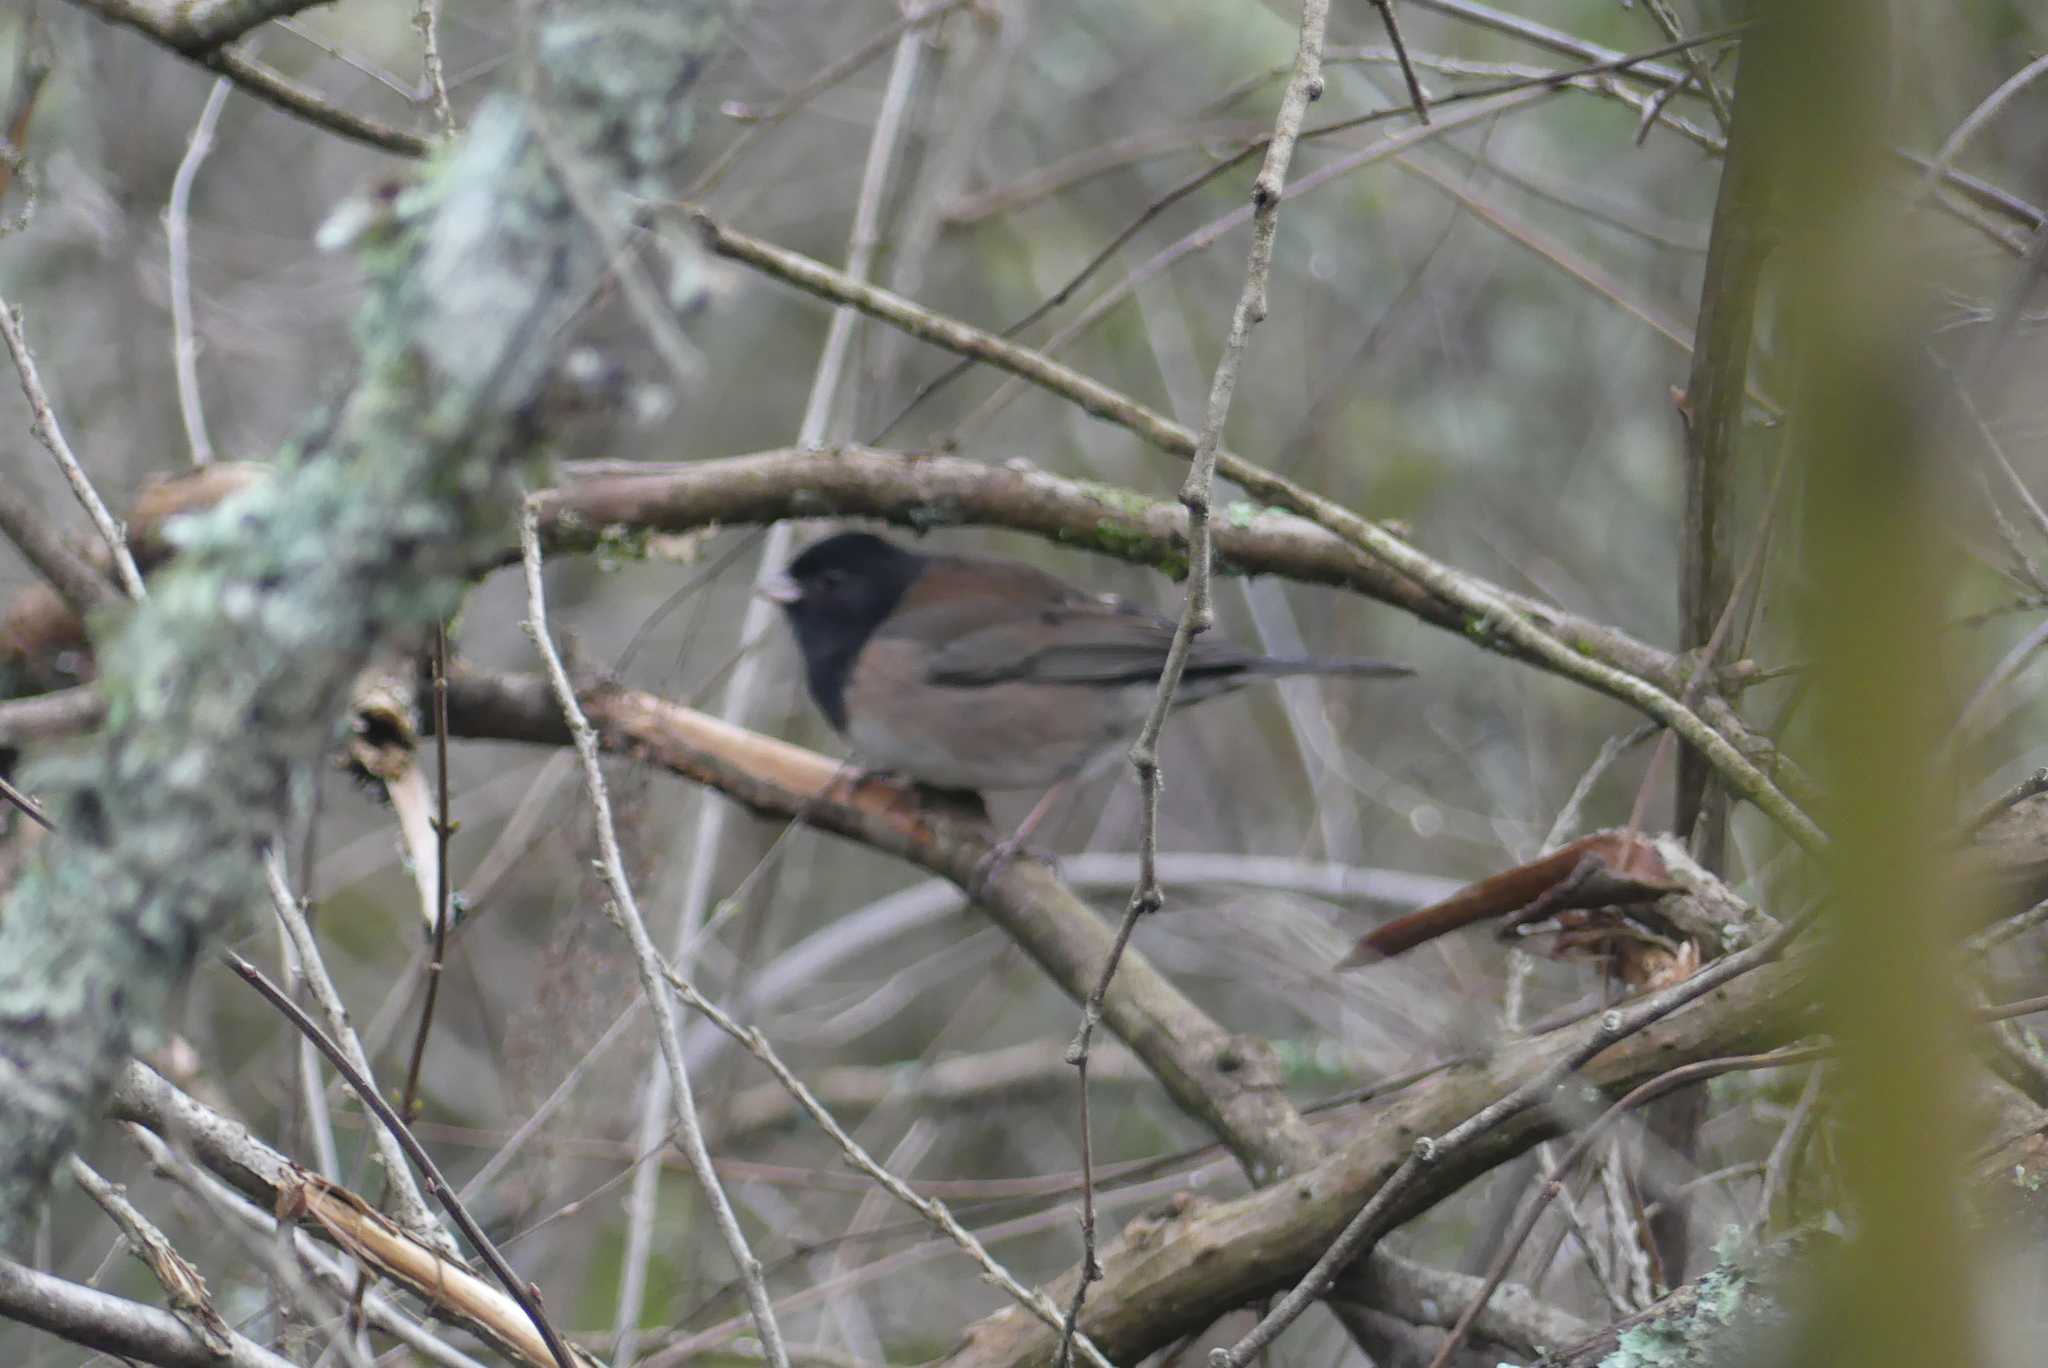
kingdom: Animalia
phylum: Chordata
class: Aves
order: Passeriformes
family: Passerellidae
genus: Junco
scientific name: Junco hyemalis
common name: Dark-eyed junco
